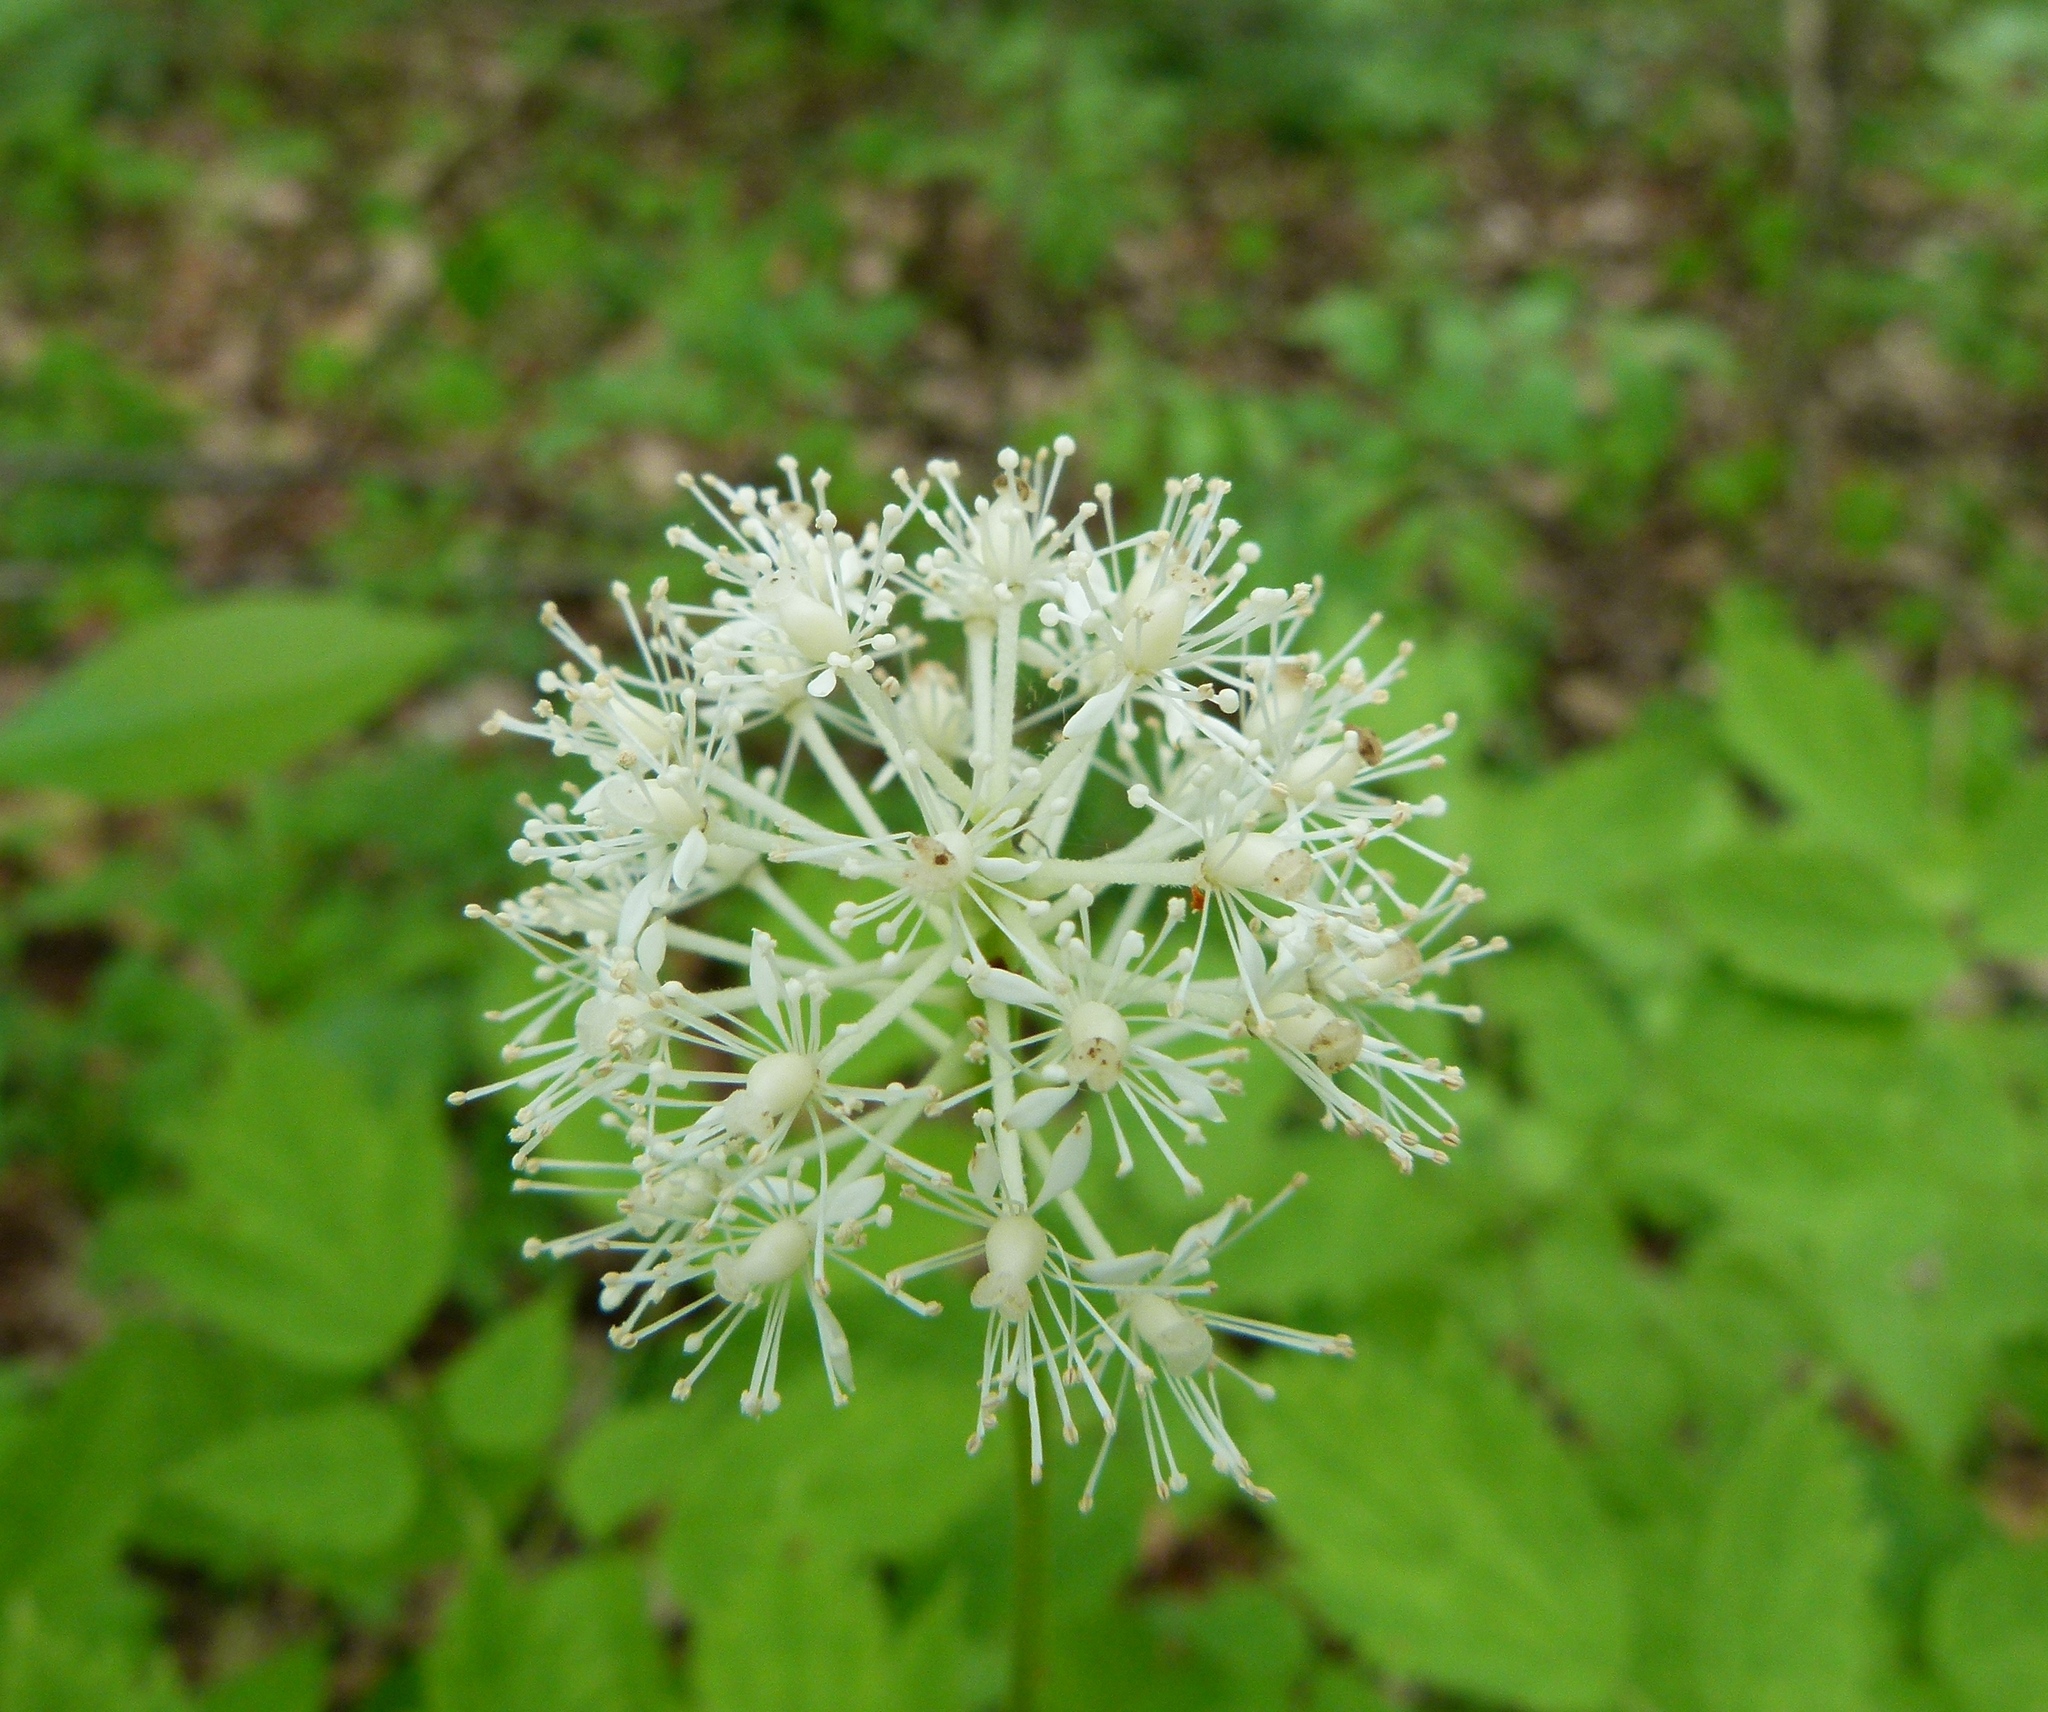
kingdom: Plantae
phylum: Tracheophyta
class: Magnoliopsida
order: Ranunculales
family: Ranunculaceae
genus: Actaea
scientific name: Actaea rubra
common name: Red baneberry
